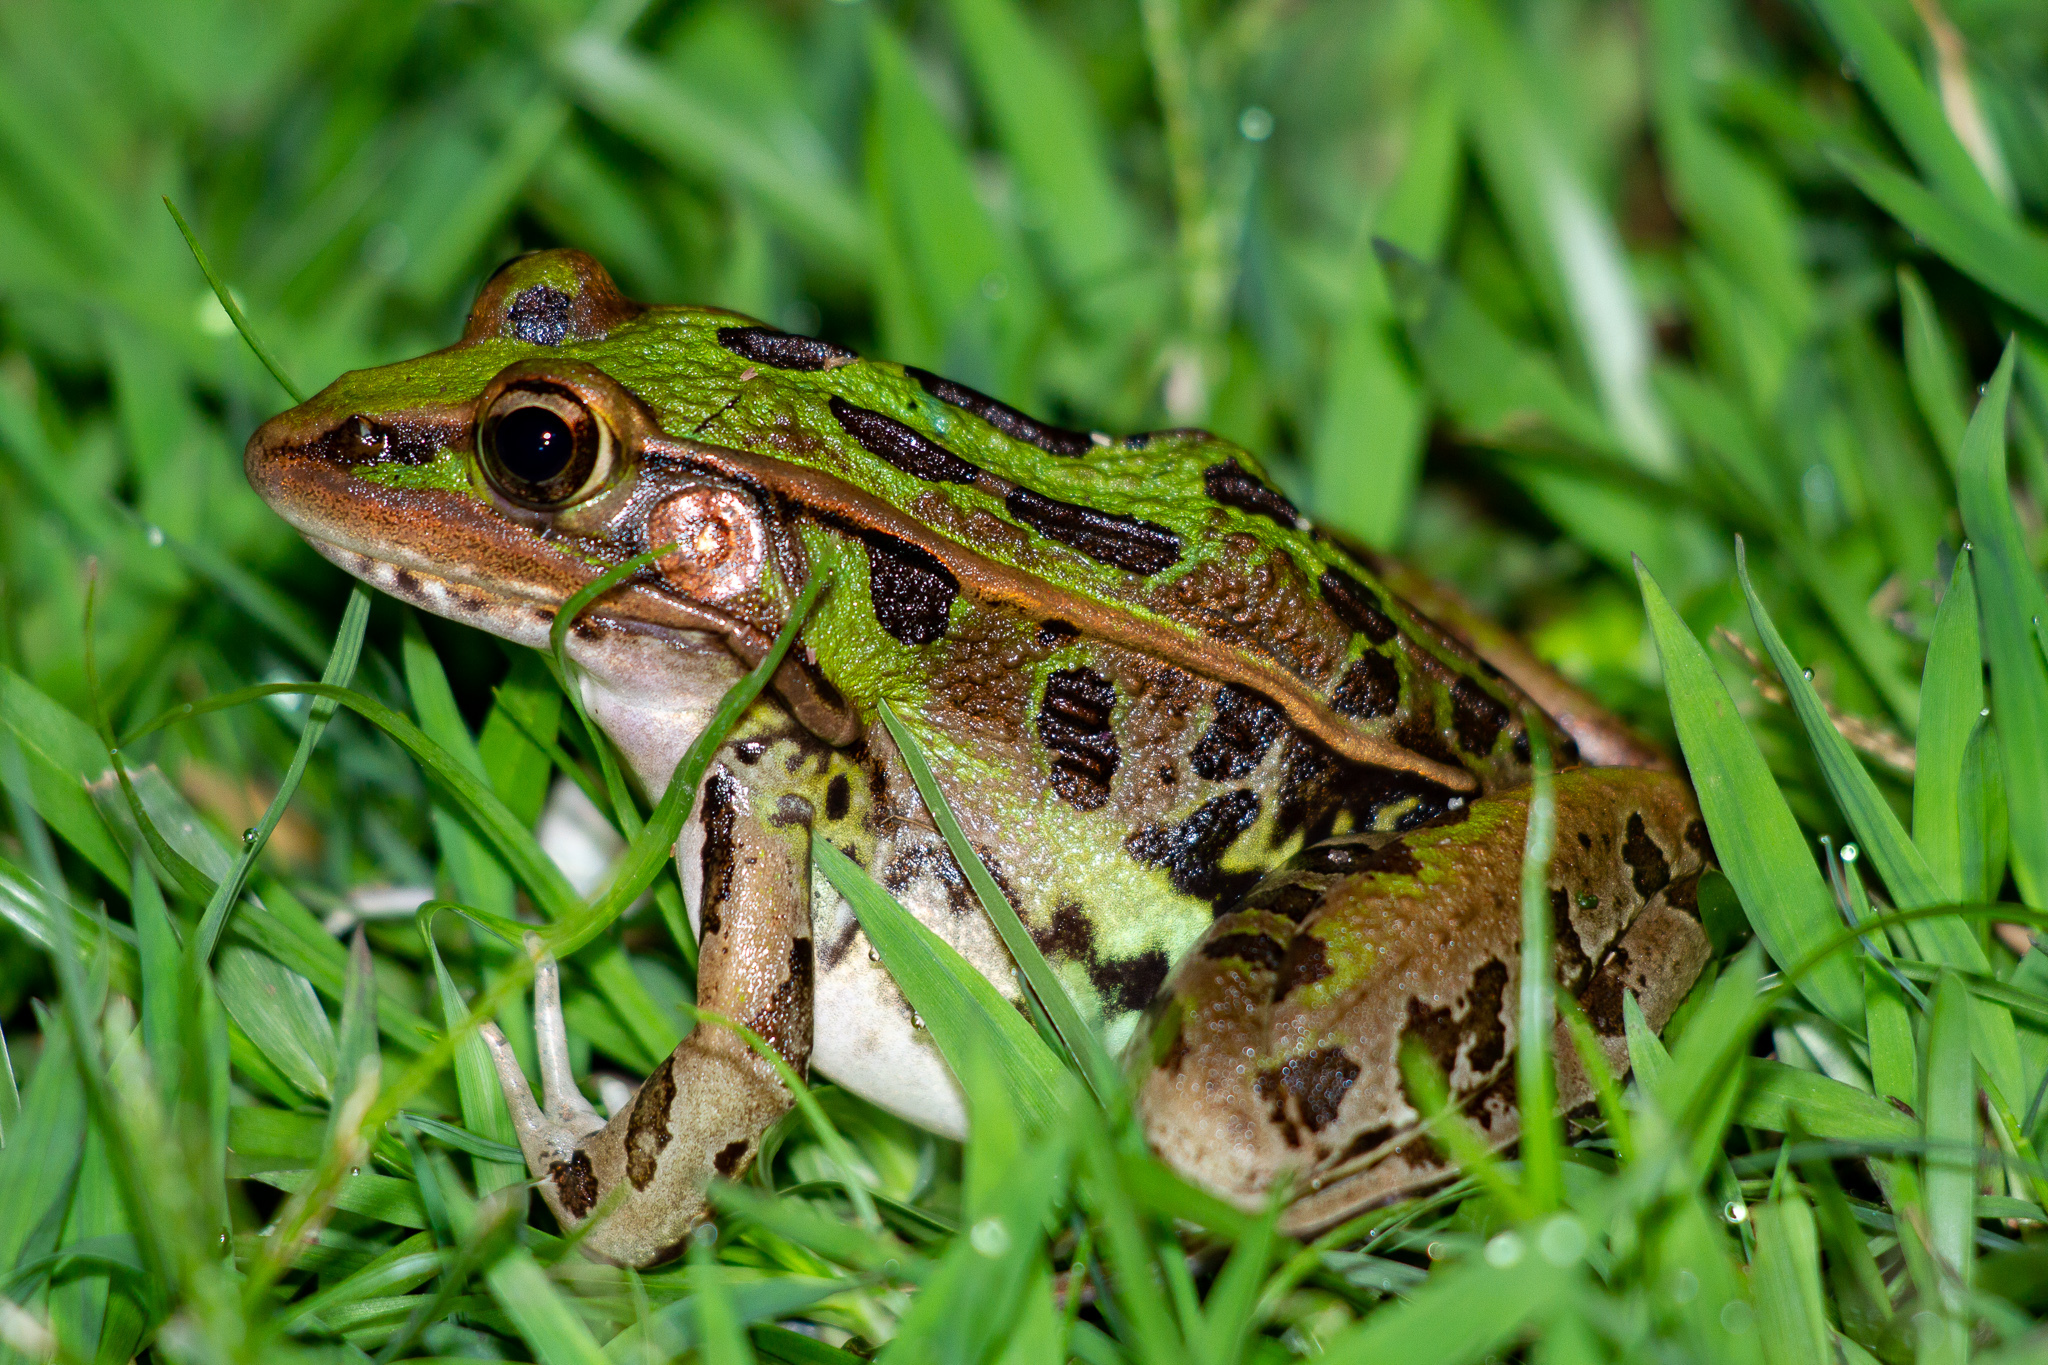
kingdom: Animalia
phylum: Chordata
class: Amphibia
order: Anura
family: Ranidae
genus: Lithobates
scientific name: Lithobates sphenocephalus
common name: Southern leopard frog
